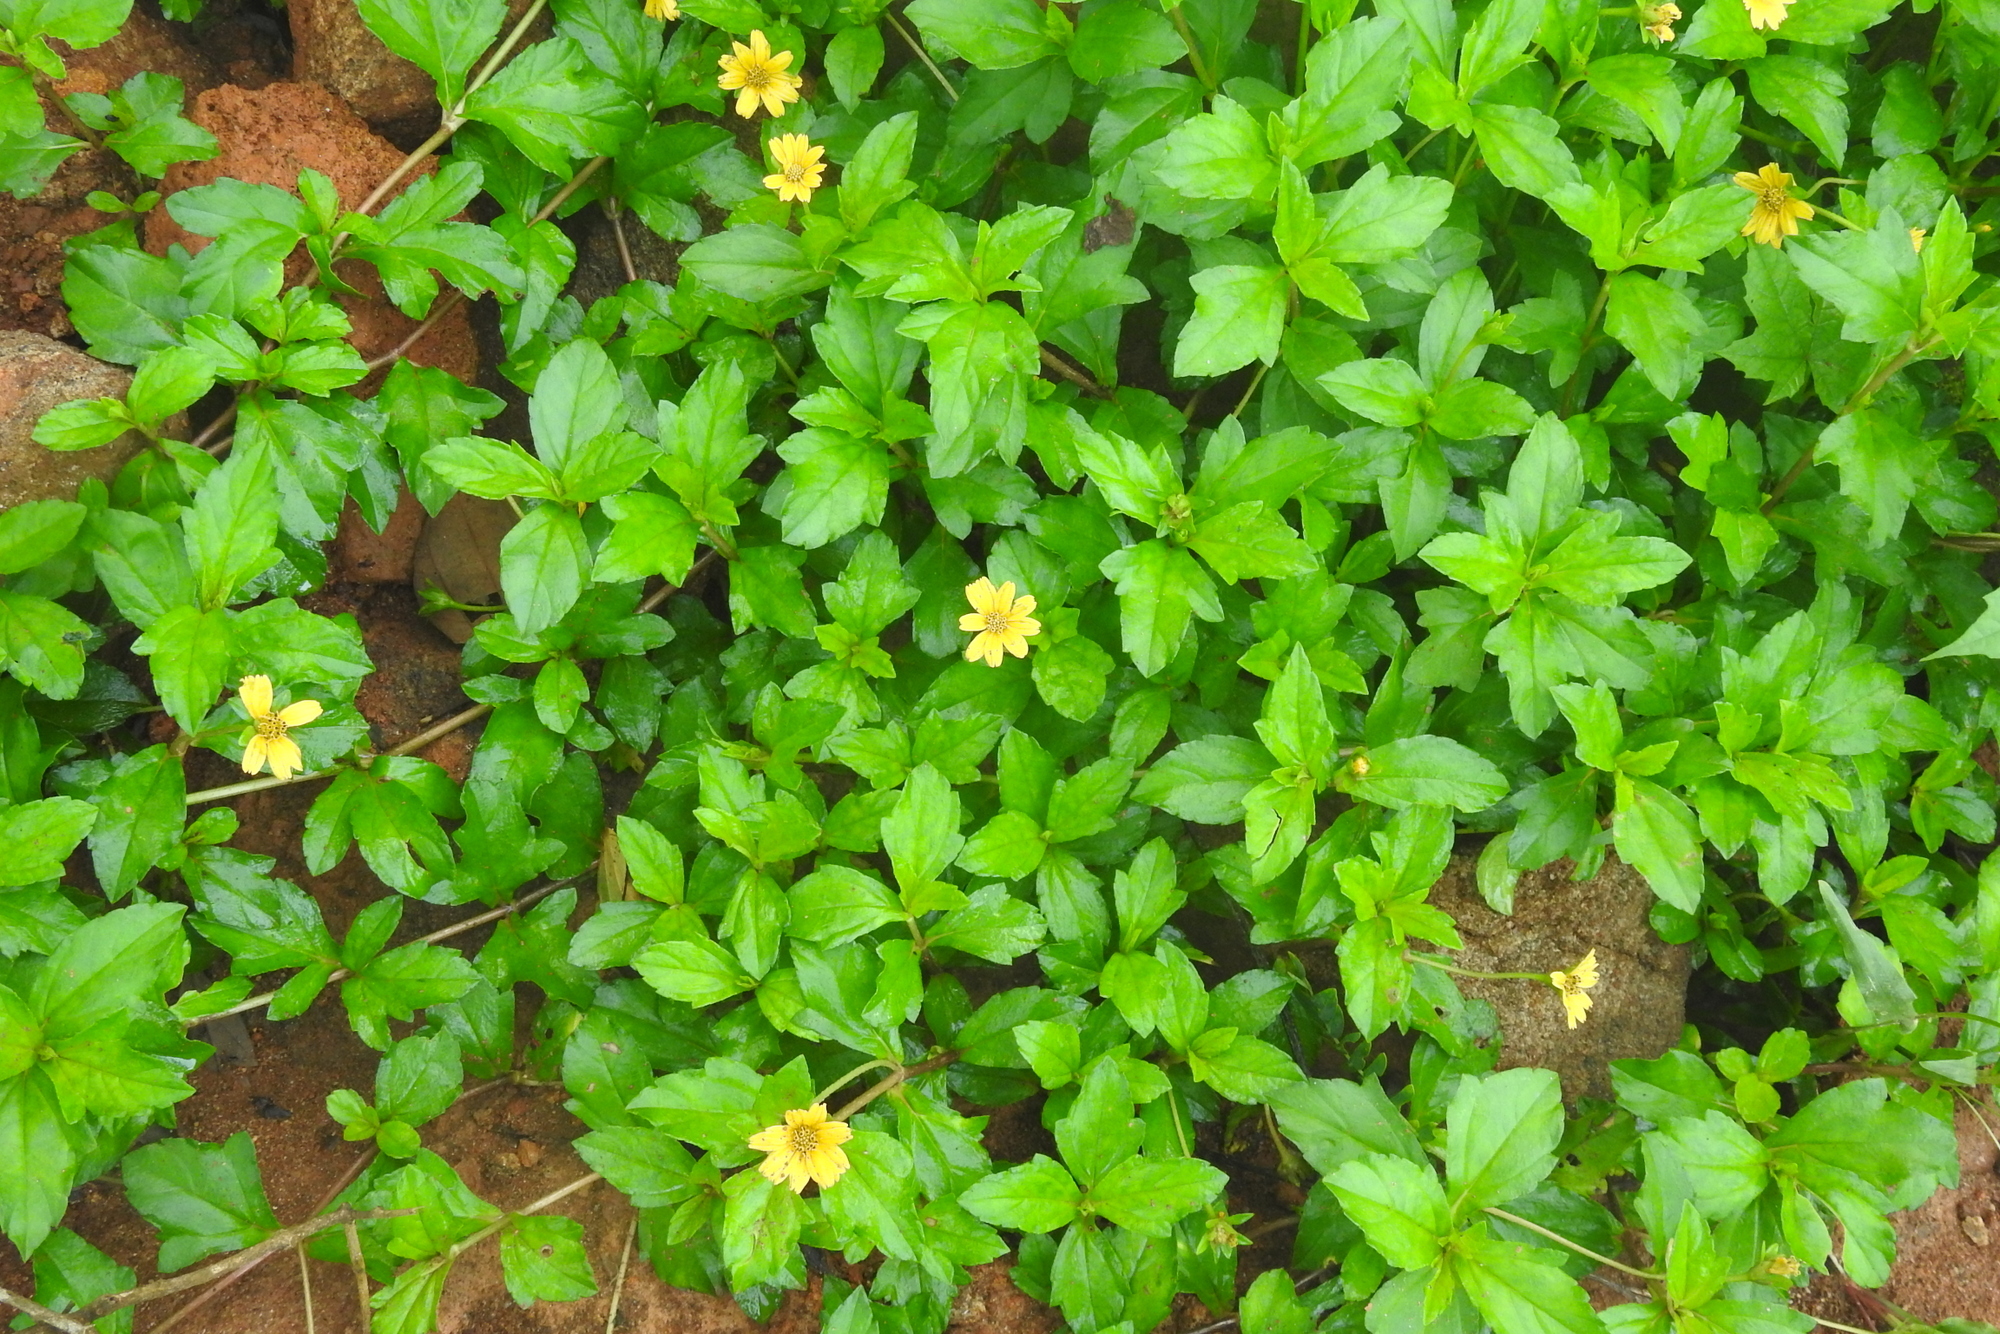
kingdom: Plantae
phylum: Tracheophyta
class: Magnoliopsida
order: Asterales
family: Asteraceae
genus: Sphagneticola
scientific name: Sphagneticola trilobata
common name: Bay biscayne creeping-oxeye
